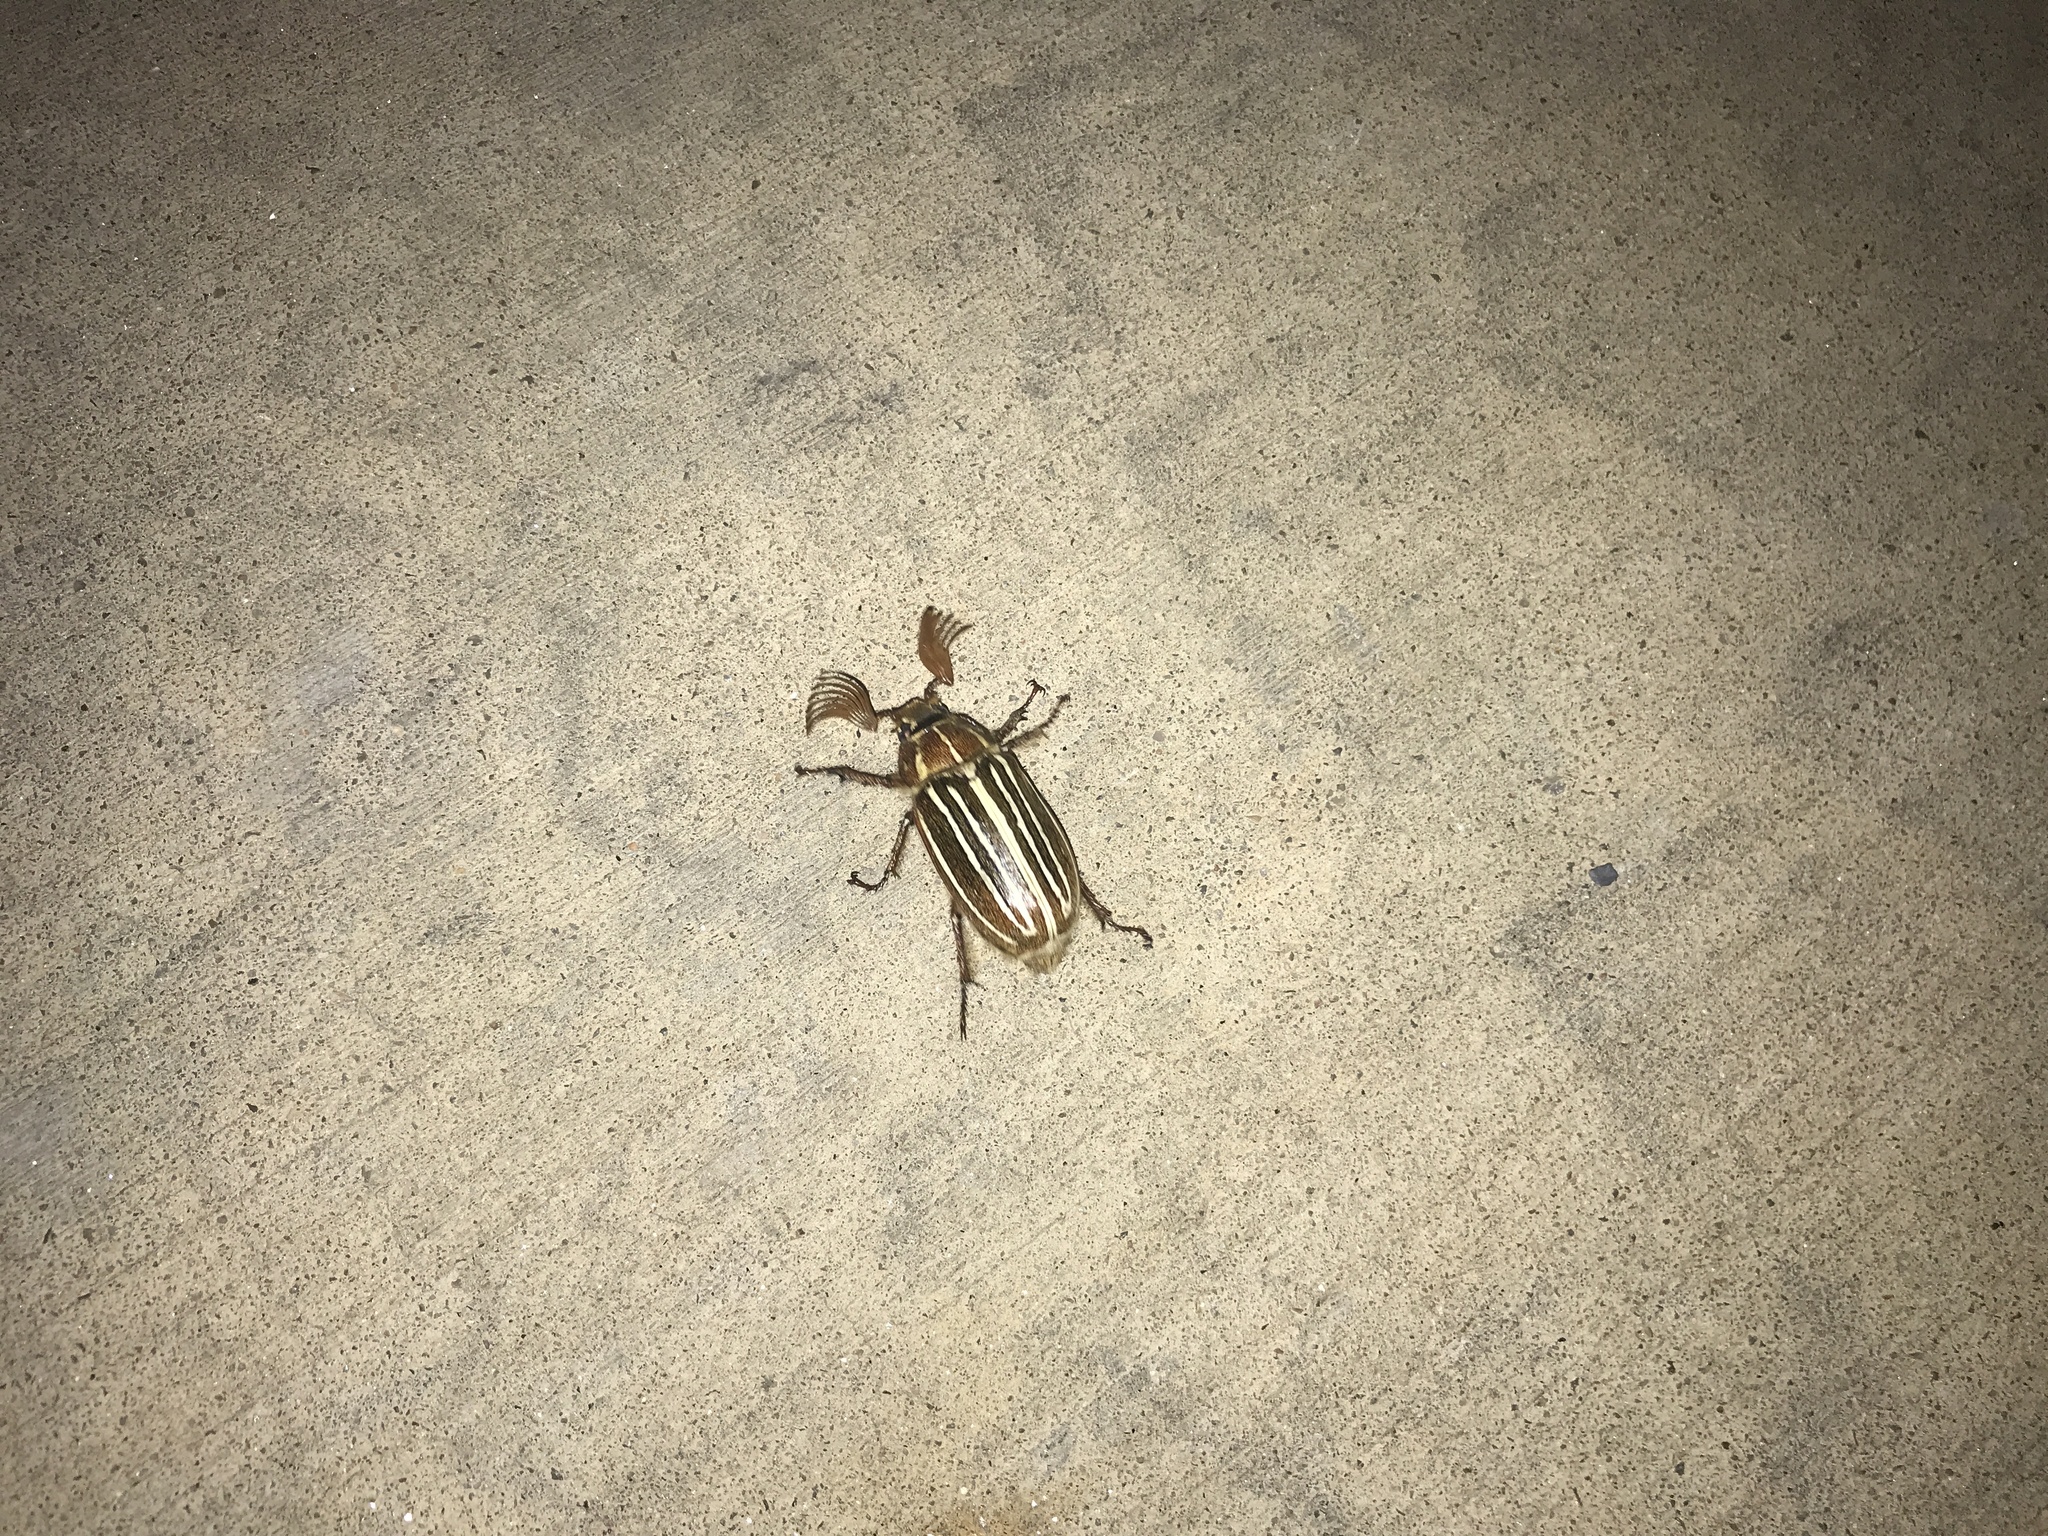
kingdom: Animalia
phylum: Arthropoda
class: Insecta
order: Coleoptera
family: Scarabaeidae
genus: Polyphylla
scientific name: Polyphylla decemlineata
